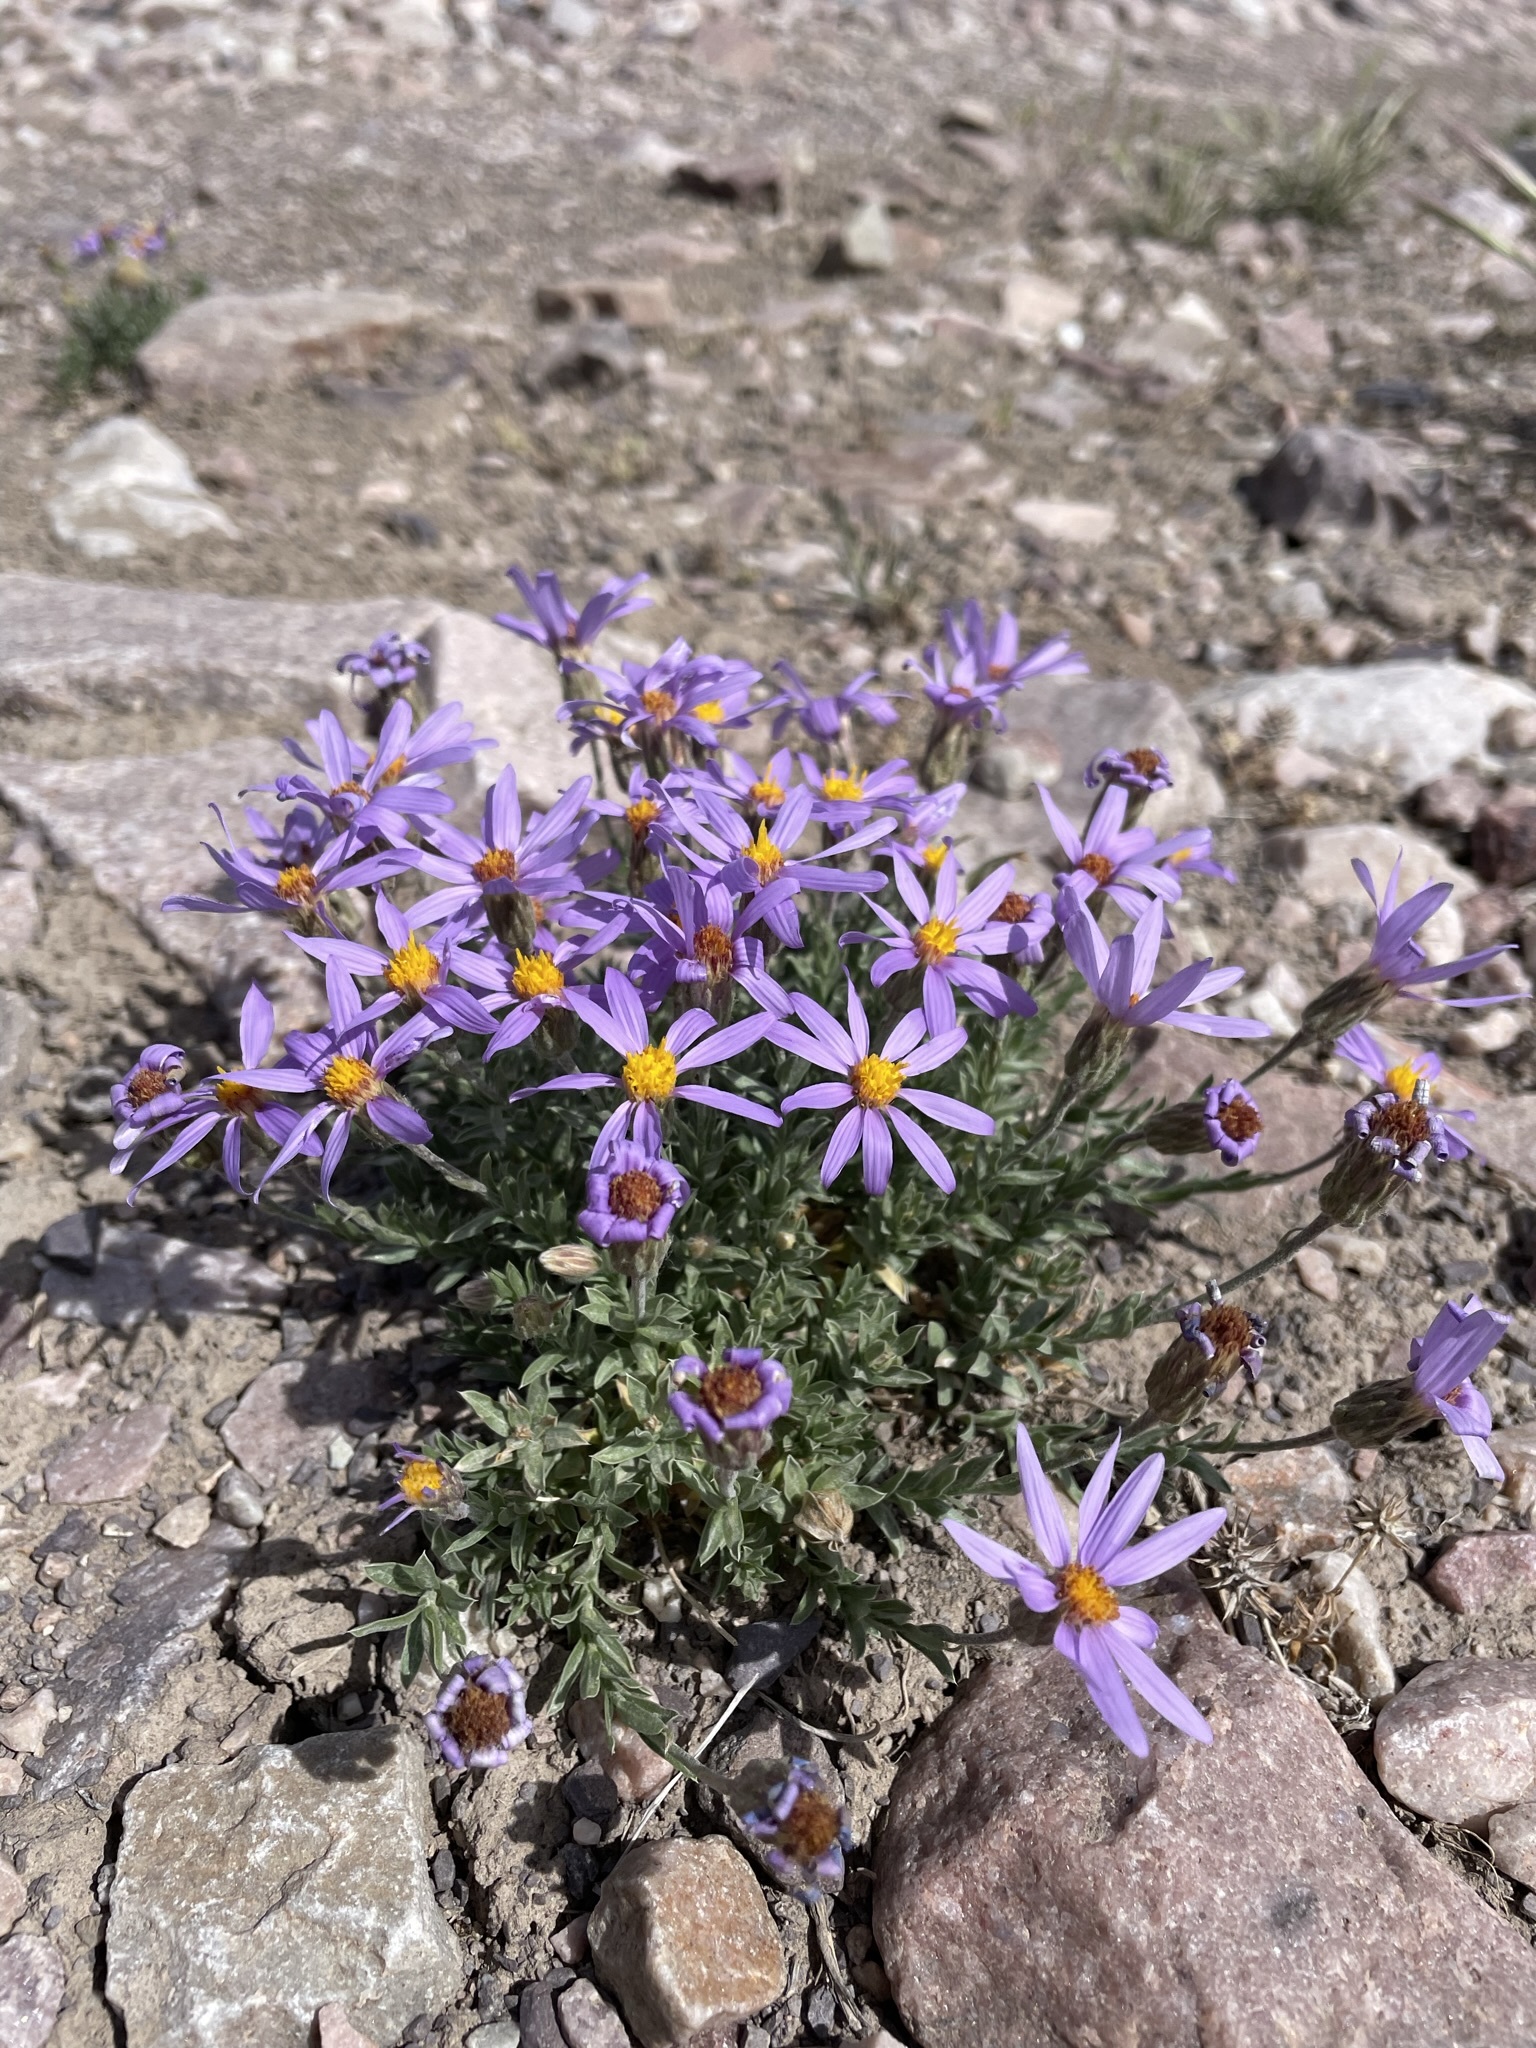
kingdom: Plantae
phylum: Tracheophyta
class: Magnoliopsida
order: Asterales
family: Asteraceae
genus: Ionactis
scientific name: Ionactis alpina
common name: Crag aster
